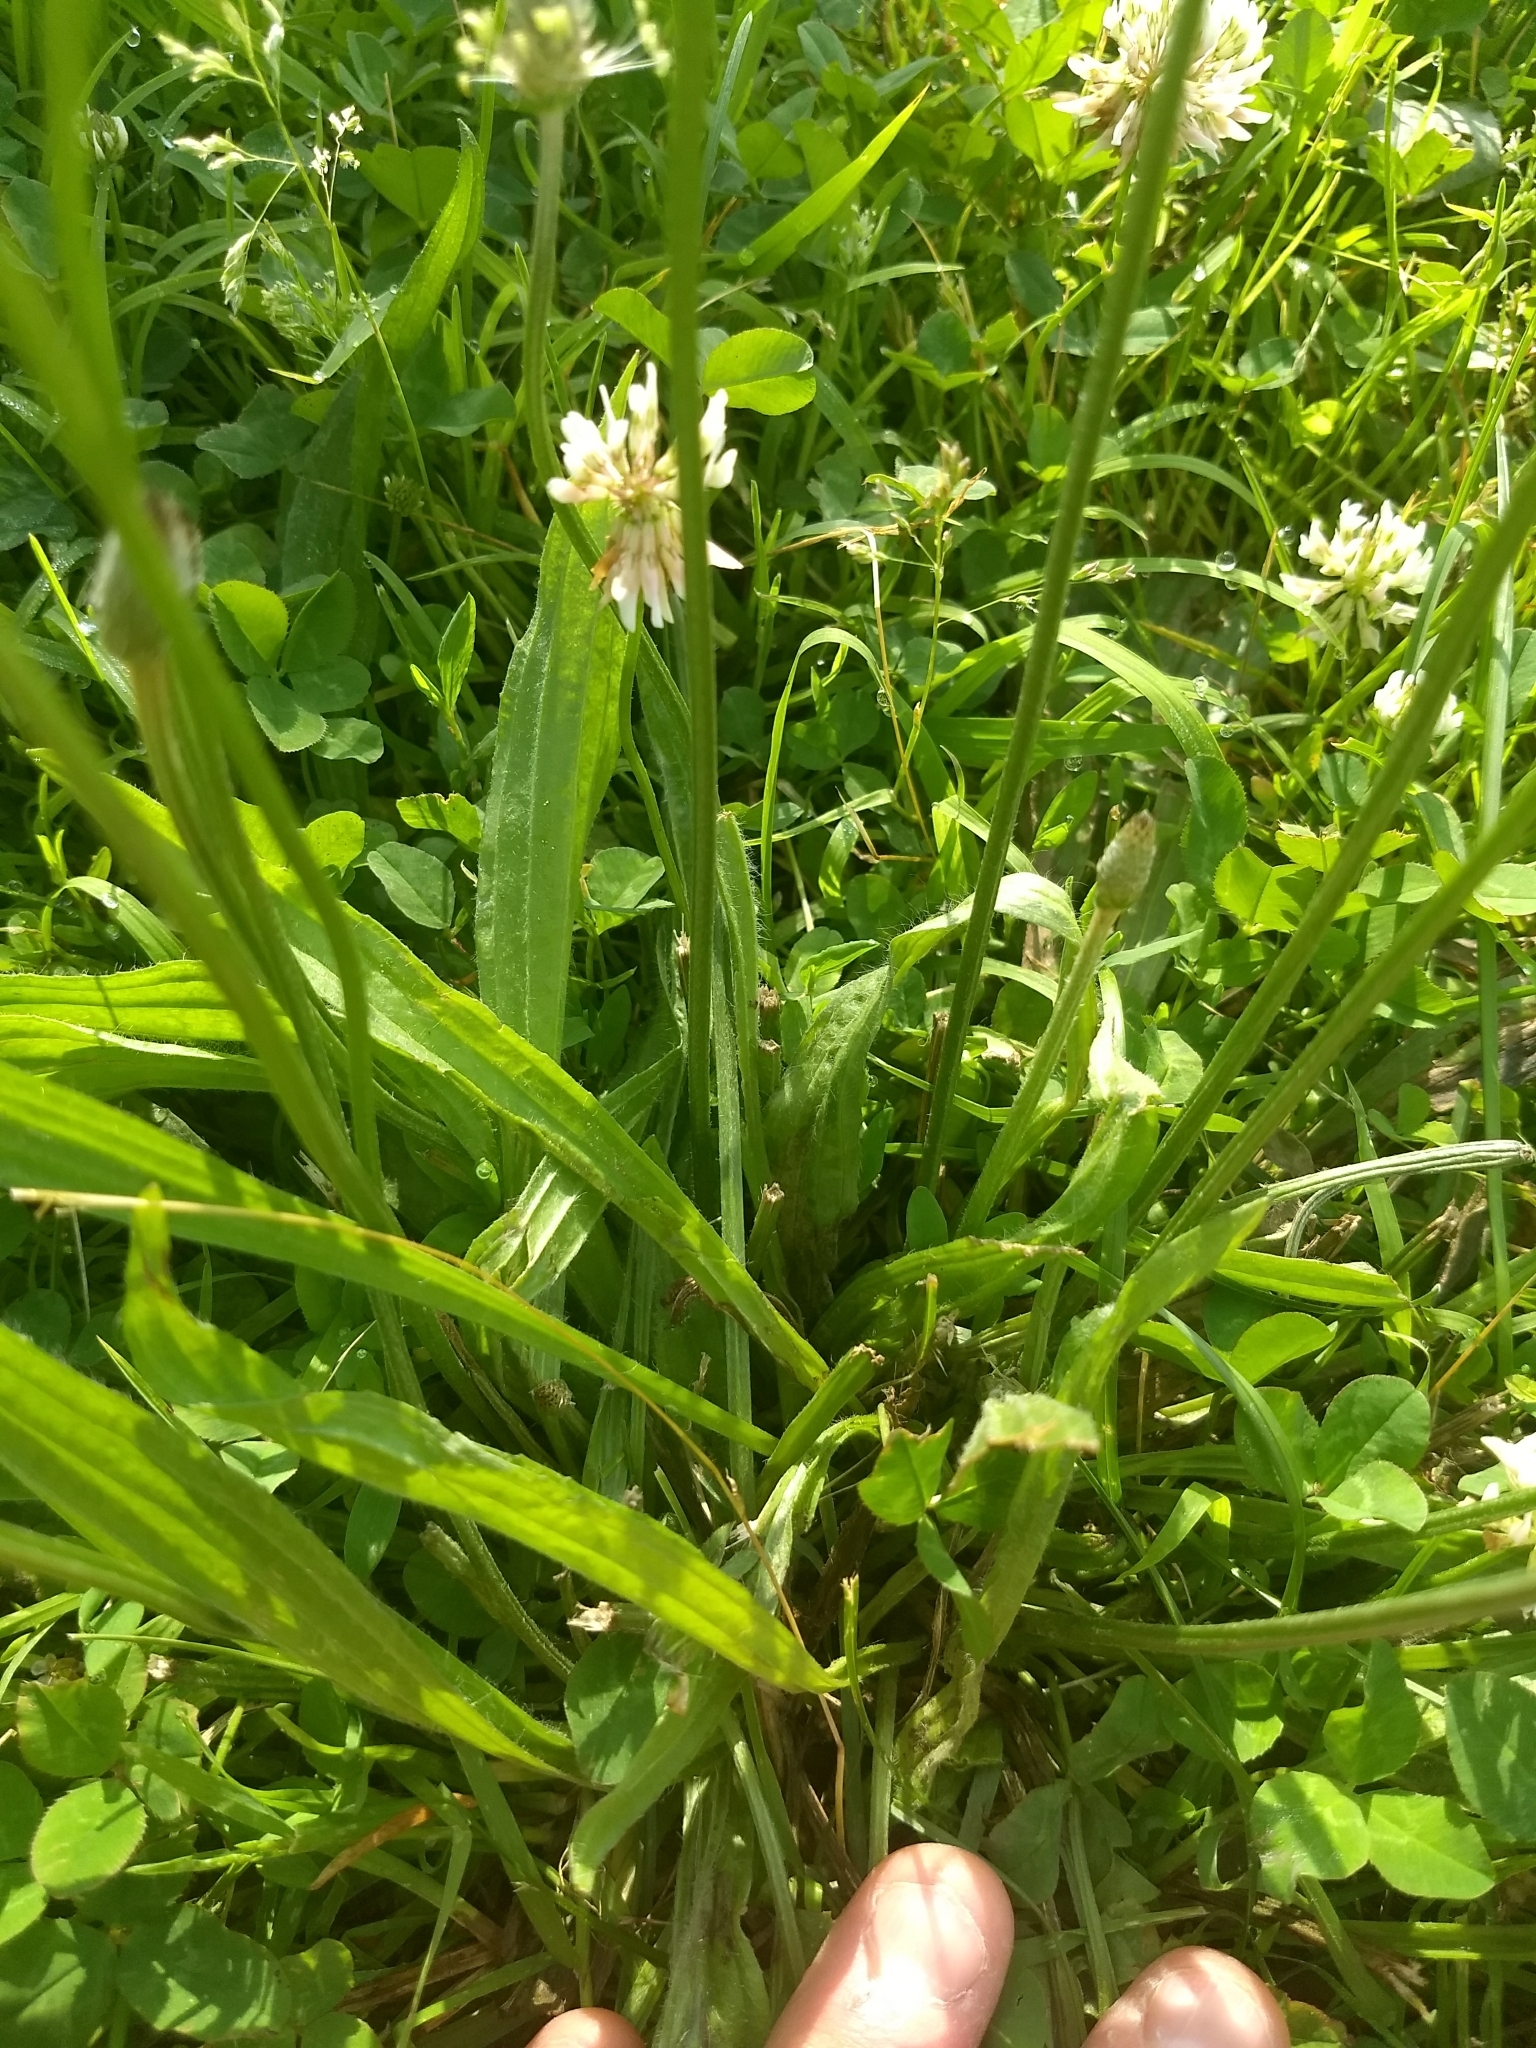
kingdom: Plantae
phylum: Tracheophyta
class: Magnoliopsida
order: Lamiales
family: Plantaginaceae
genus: Plantago
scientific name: Plantago lanceolata
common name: Ribwort plantain
